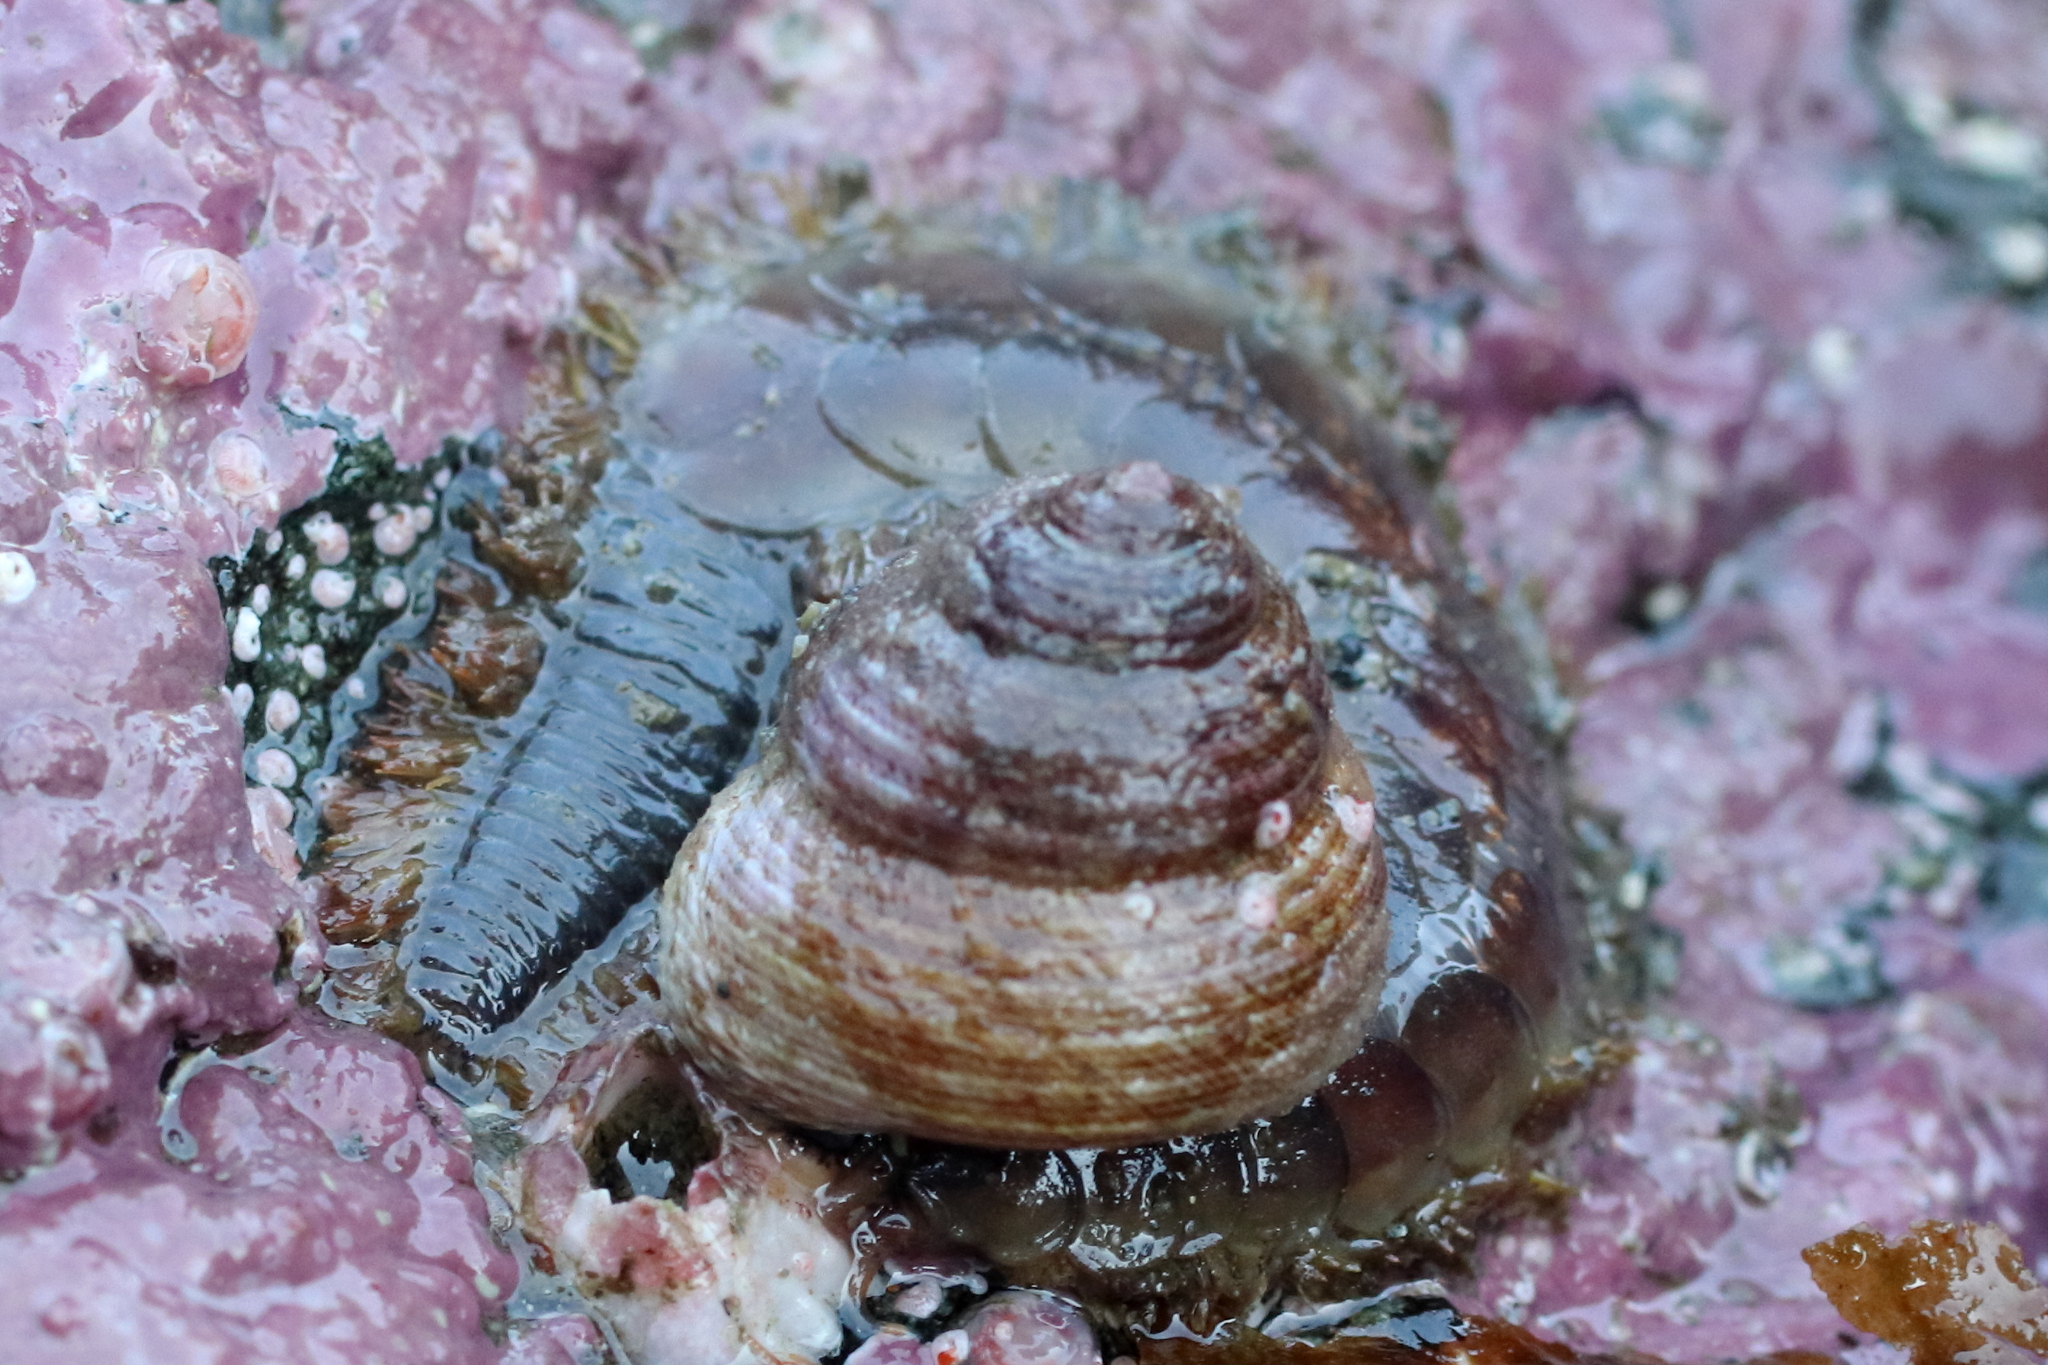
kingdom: Animalia
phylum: Annelida
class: Polychaeta
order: Phyllodocida
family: Polynoidae
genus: Hermadionella
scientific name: Hermadionella truncata
